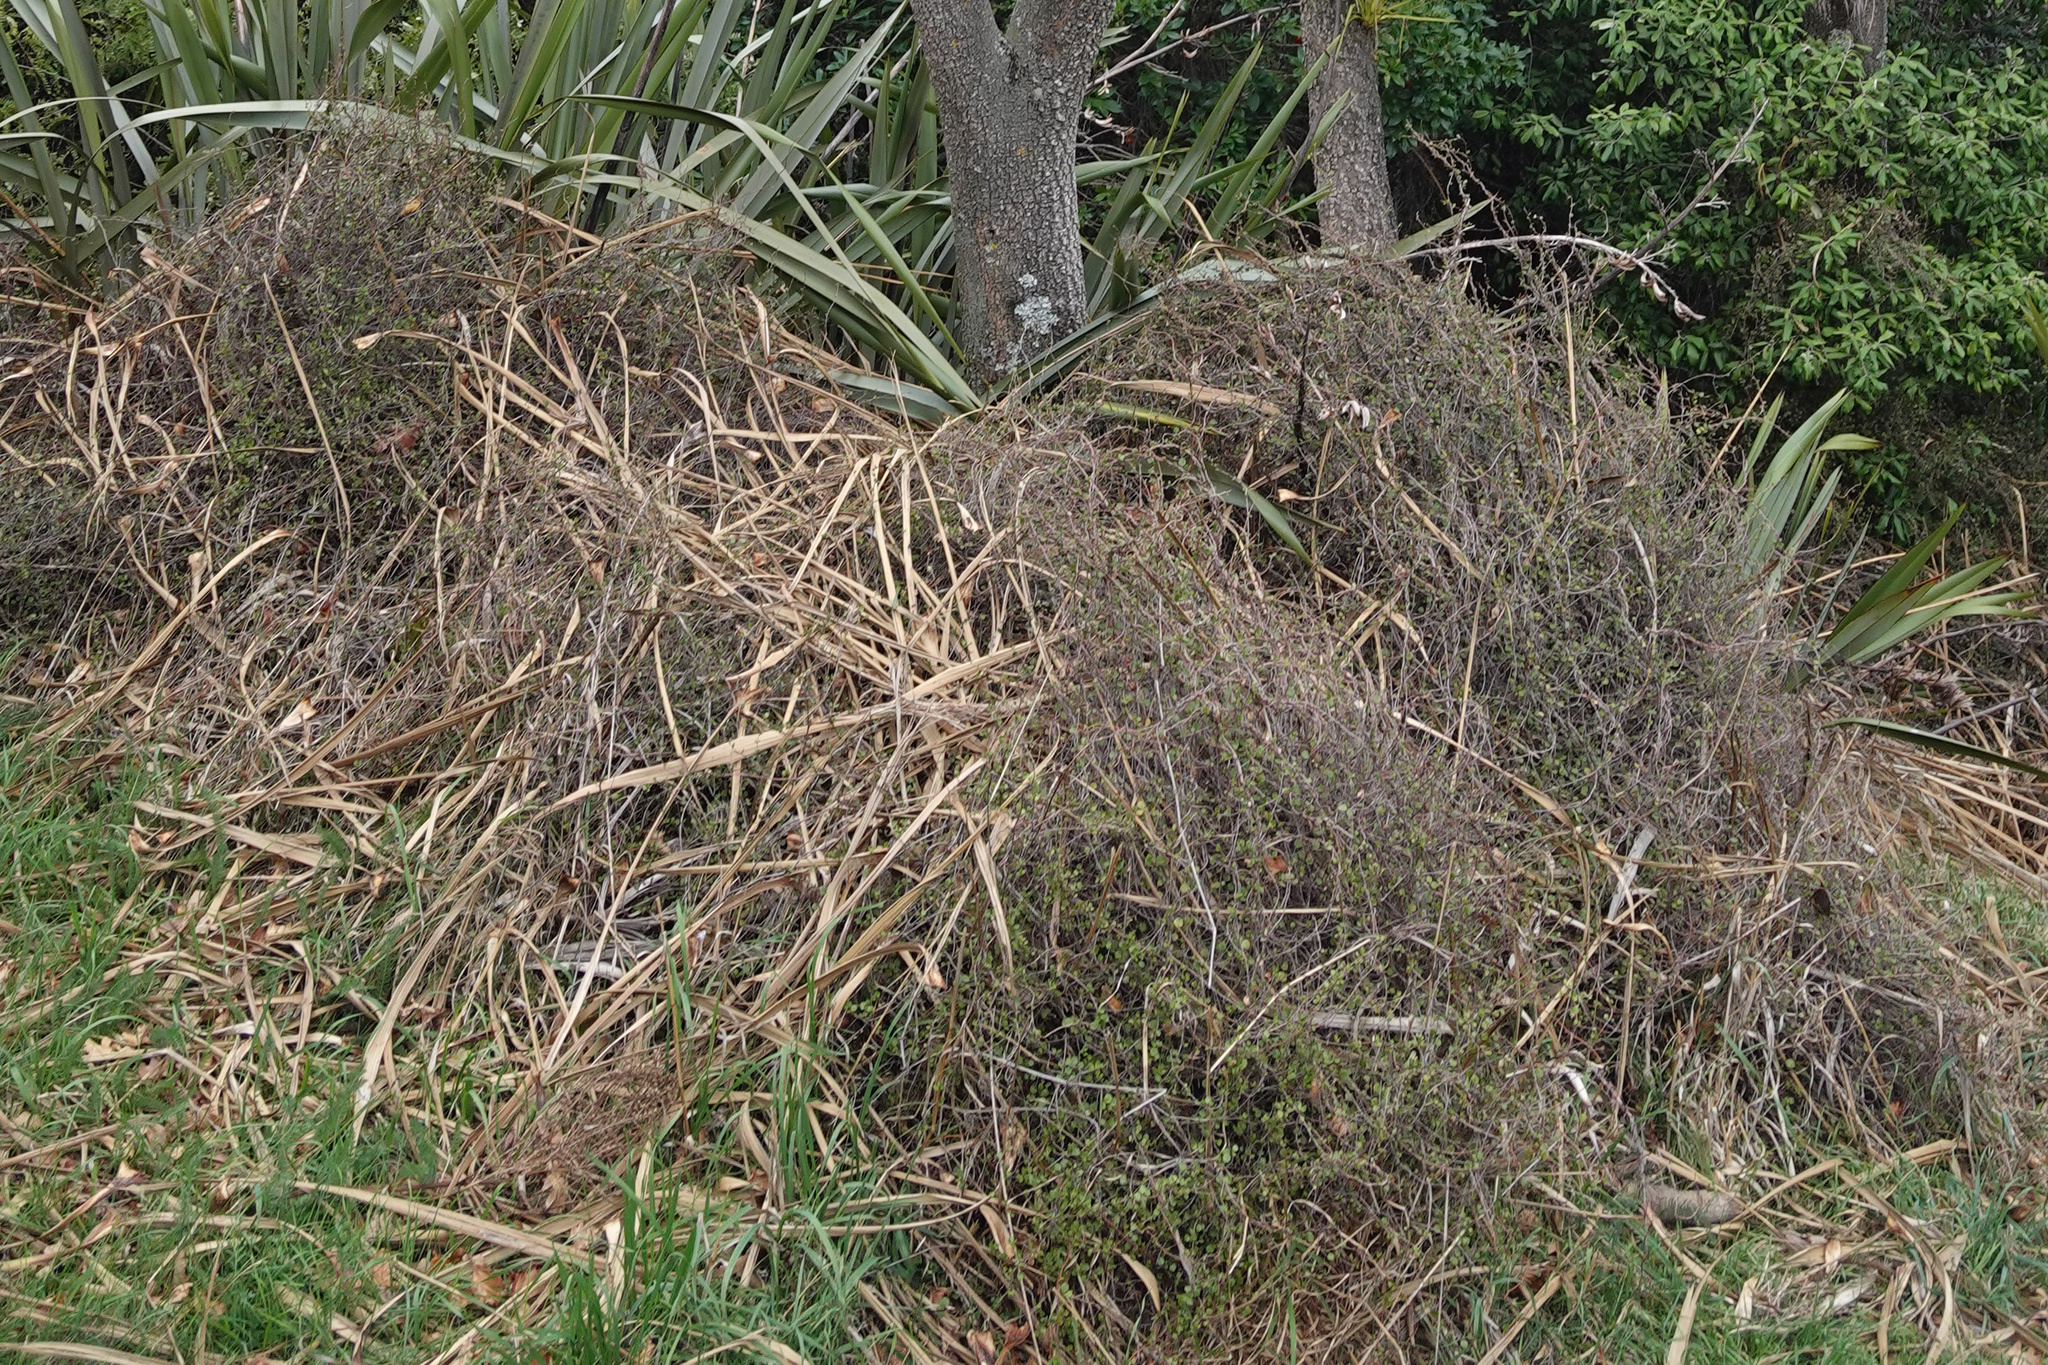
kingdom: Plantae
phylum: Tracheophyta
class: Magnoliopsida
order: Caryophyllales
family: Polygonaceae
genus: Muehlenbeckia
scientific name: Muehlenbeckia complexa
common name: Wireplant
